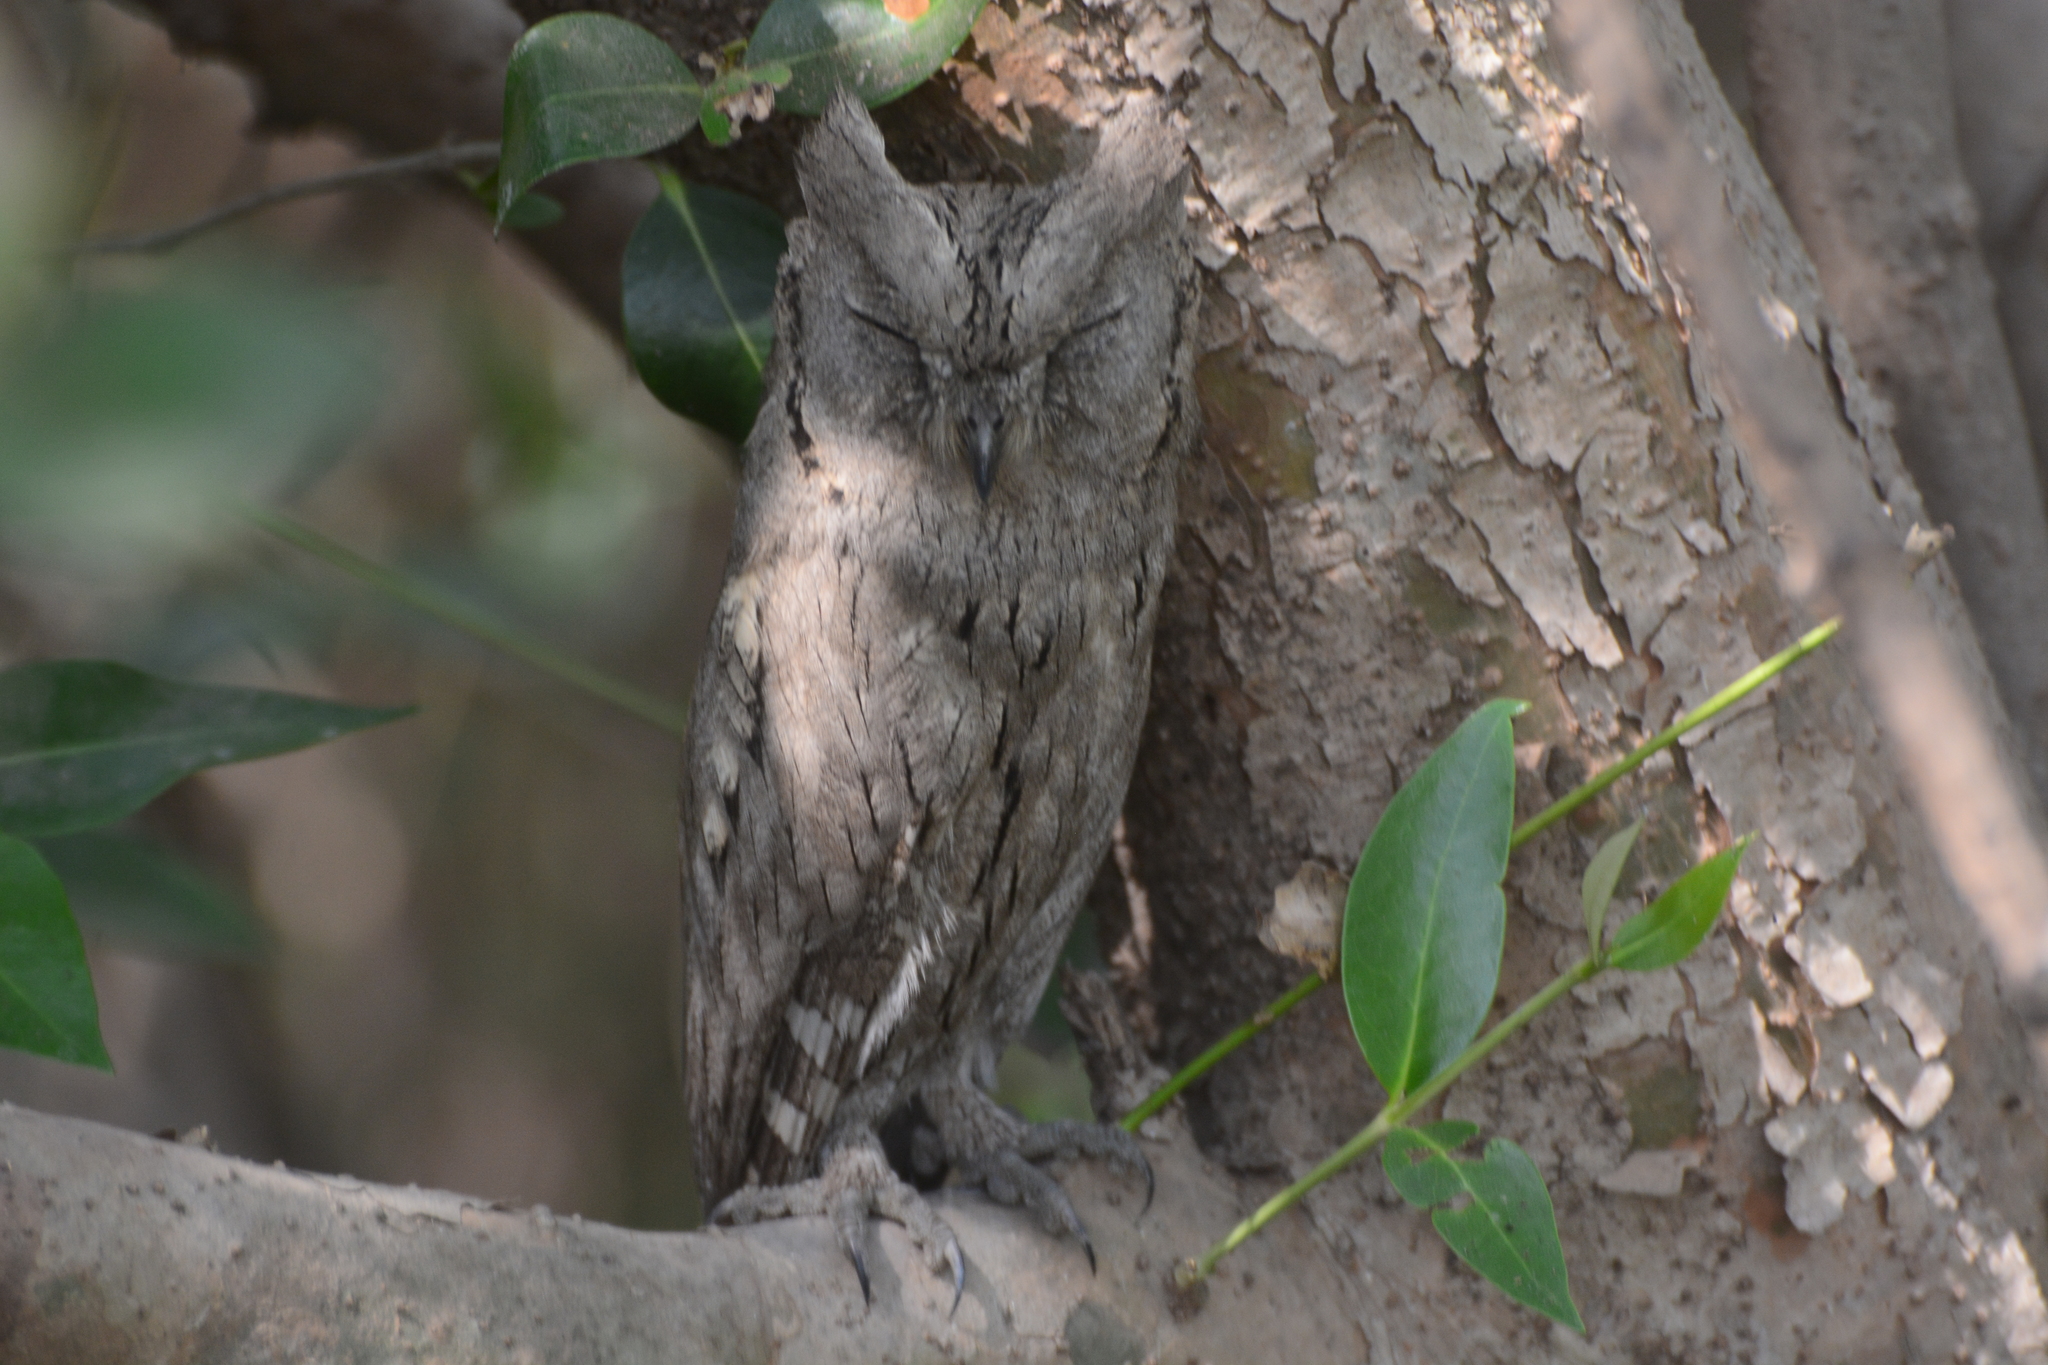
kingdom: Animalia
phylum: Chordata
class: Aves
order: Strigiformes
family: Strigidae
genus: Otus
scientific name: Otus brucei
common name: Pallid scops owl
